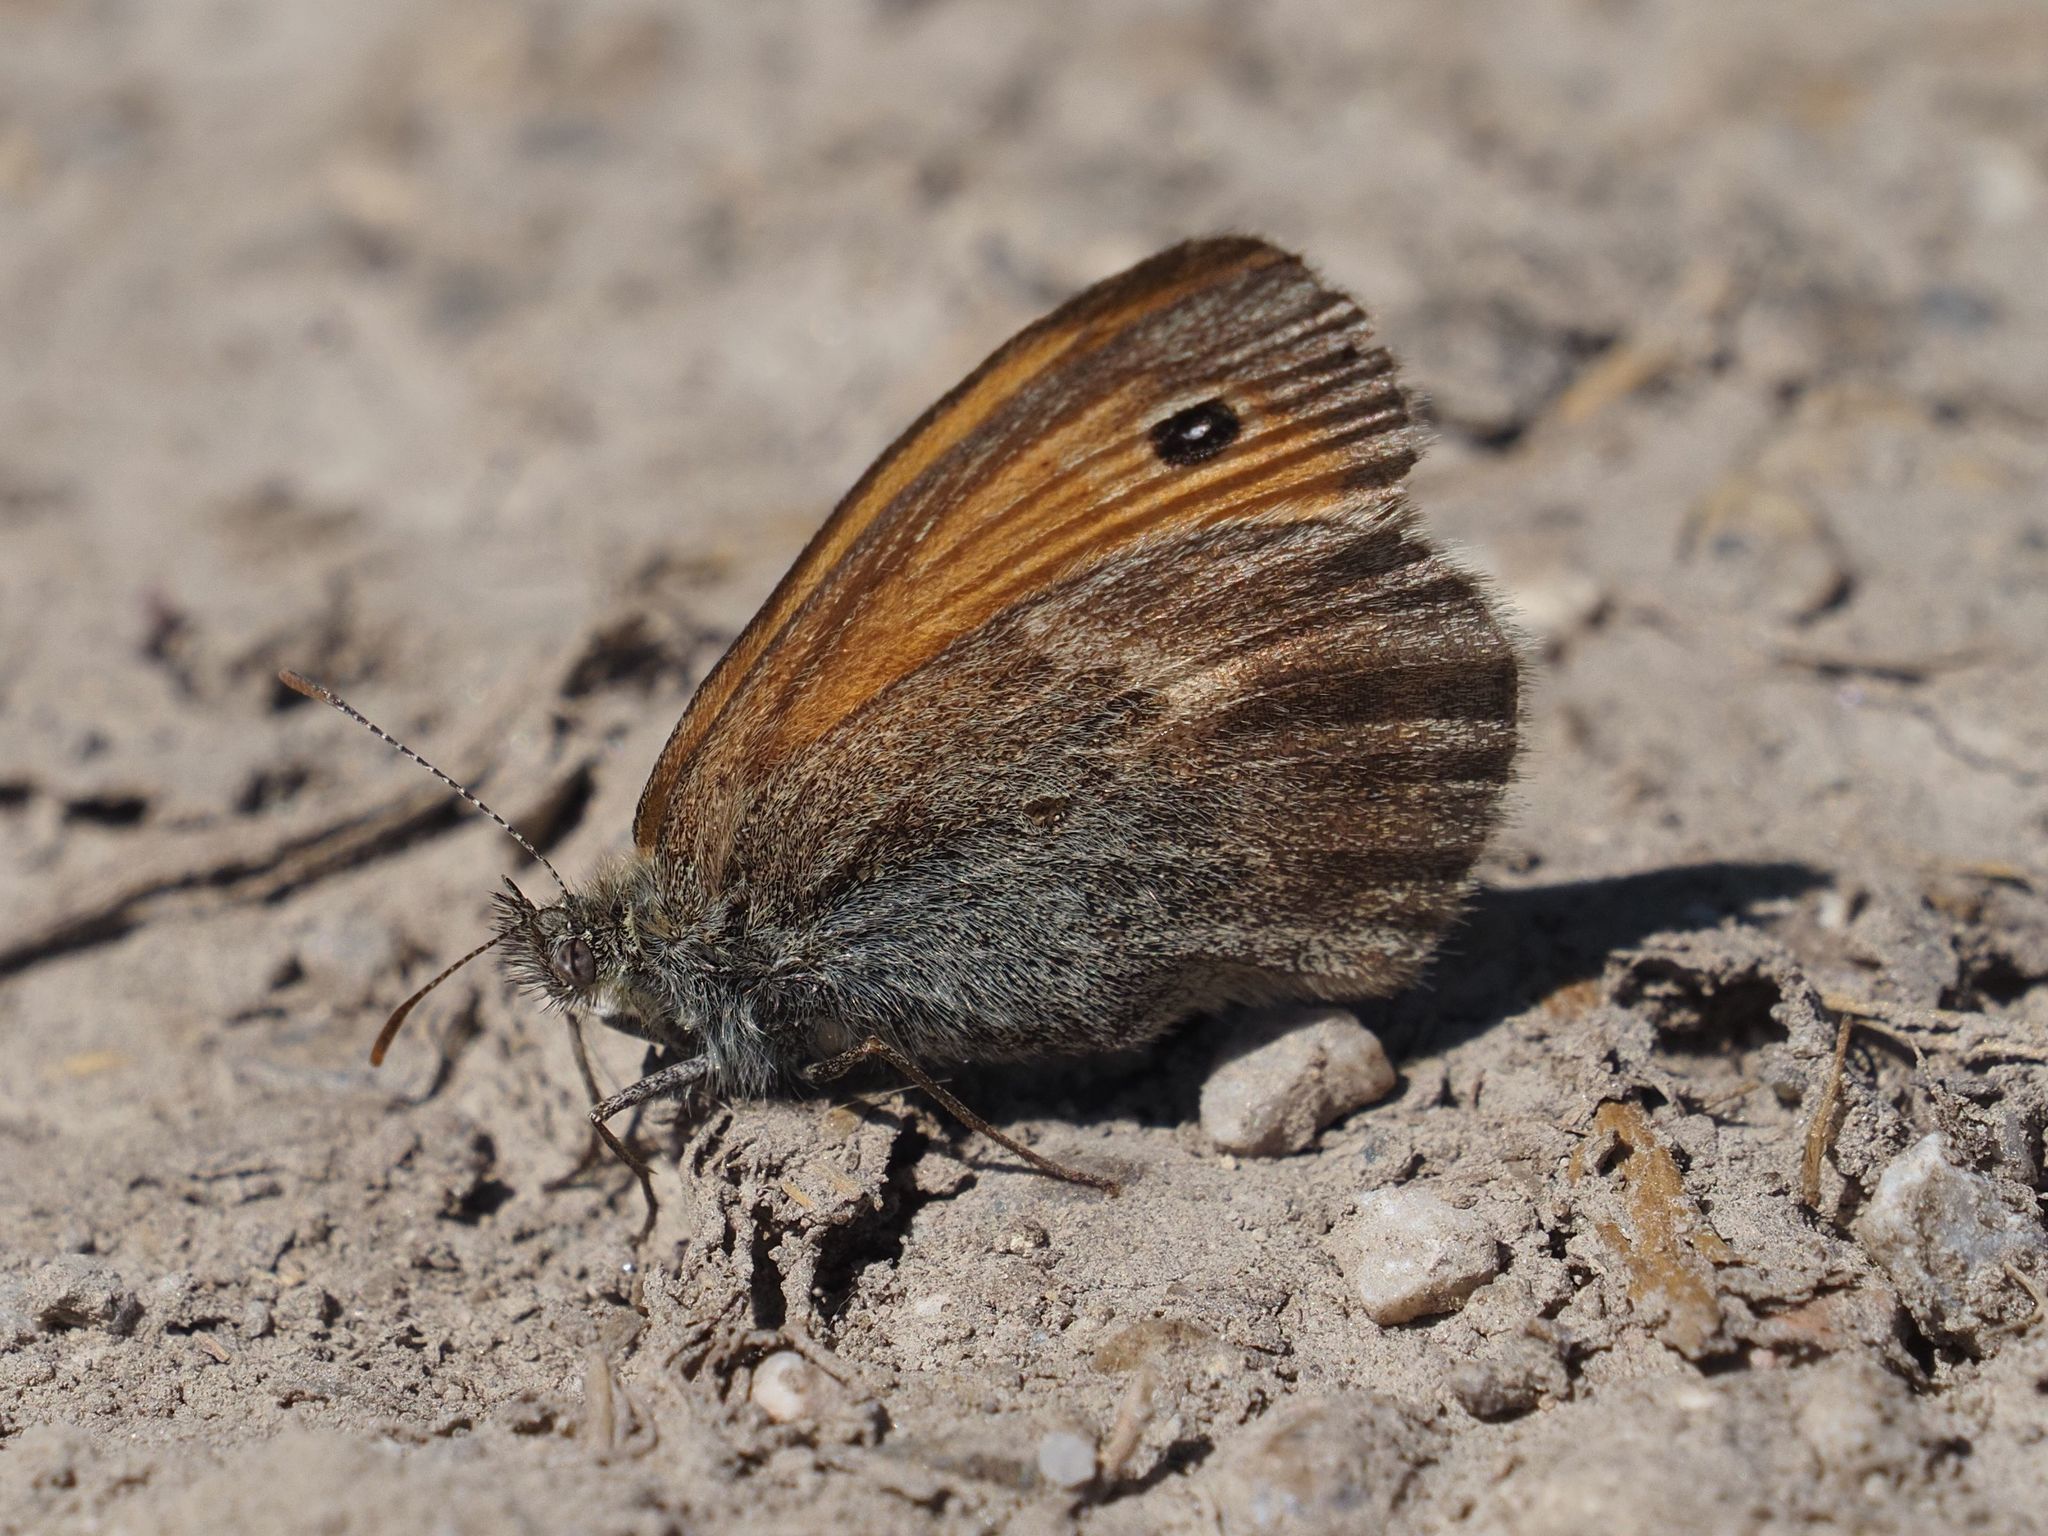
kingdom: Animalia
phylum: Arthropoda
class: Insecta
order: Lepidoptera
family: Nymphalidae
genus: Coenonympha
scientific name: Coenonympha pamphilus
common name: Small heath
